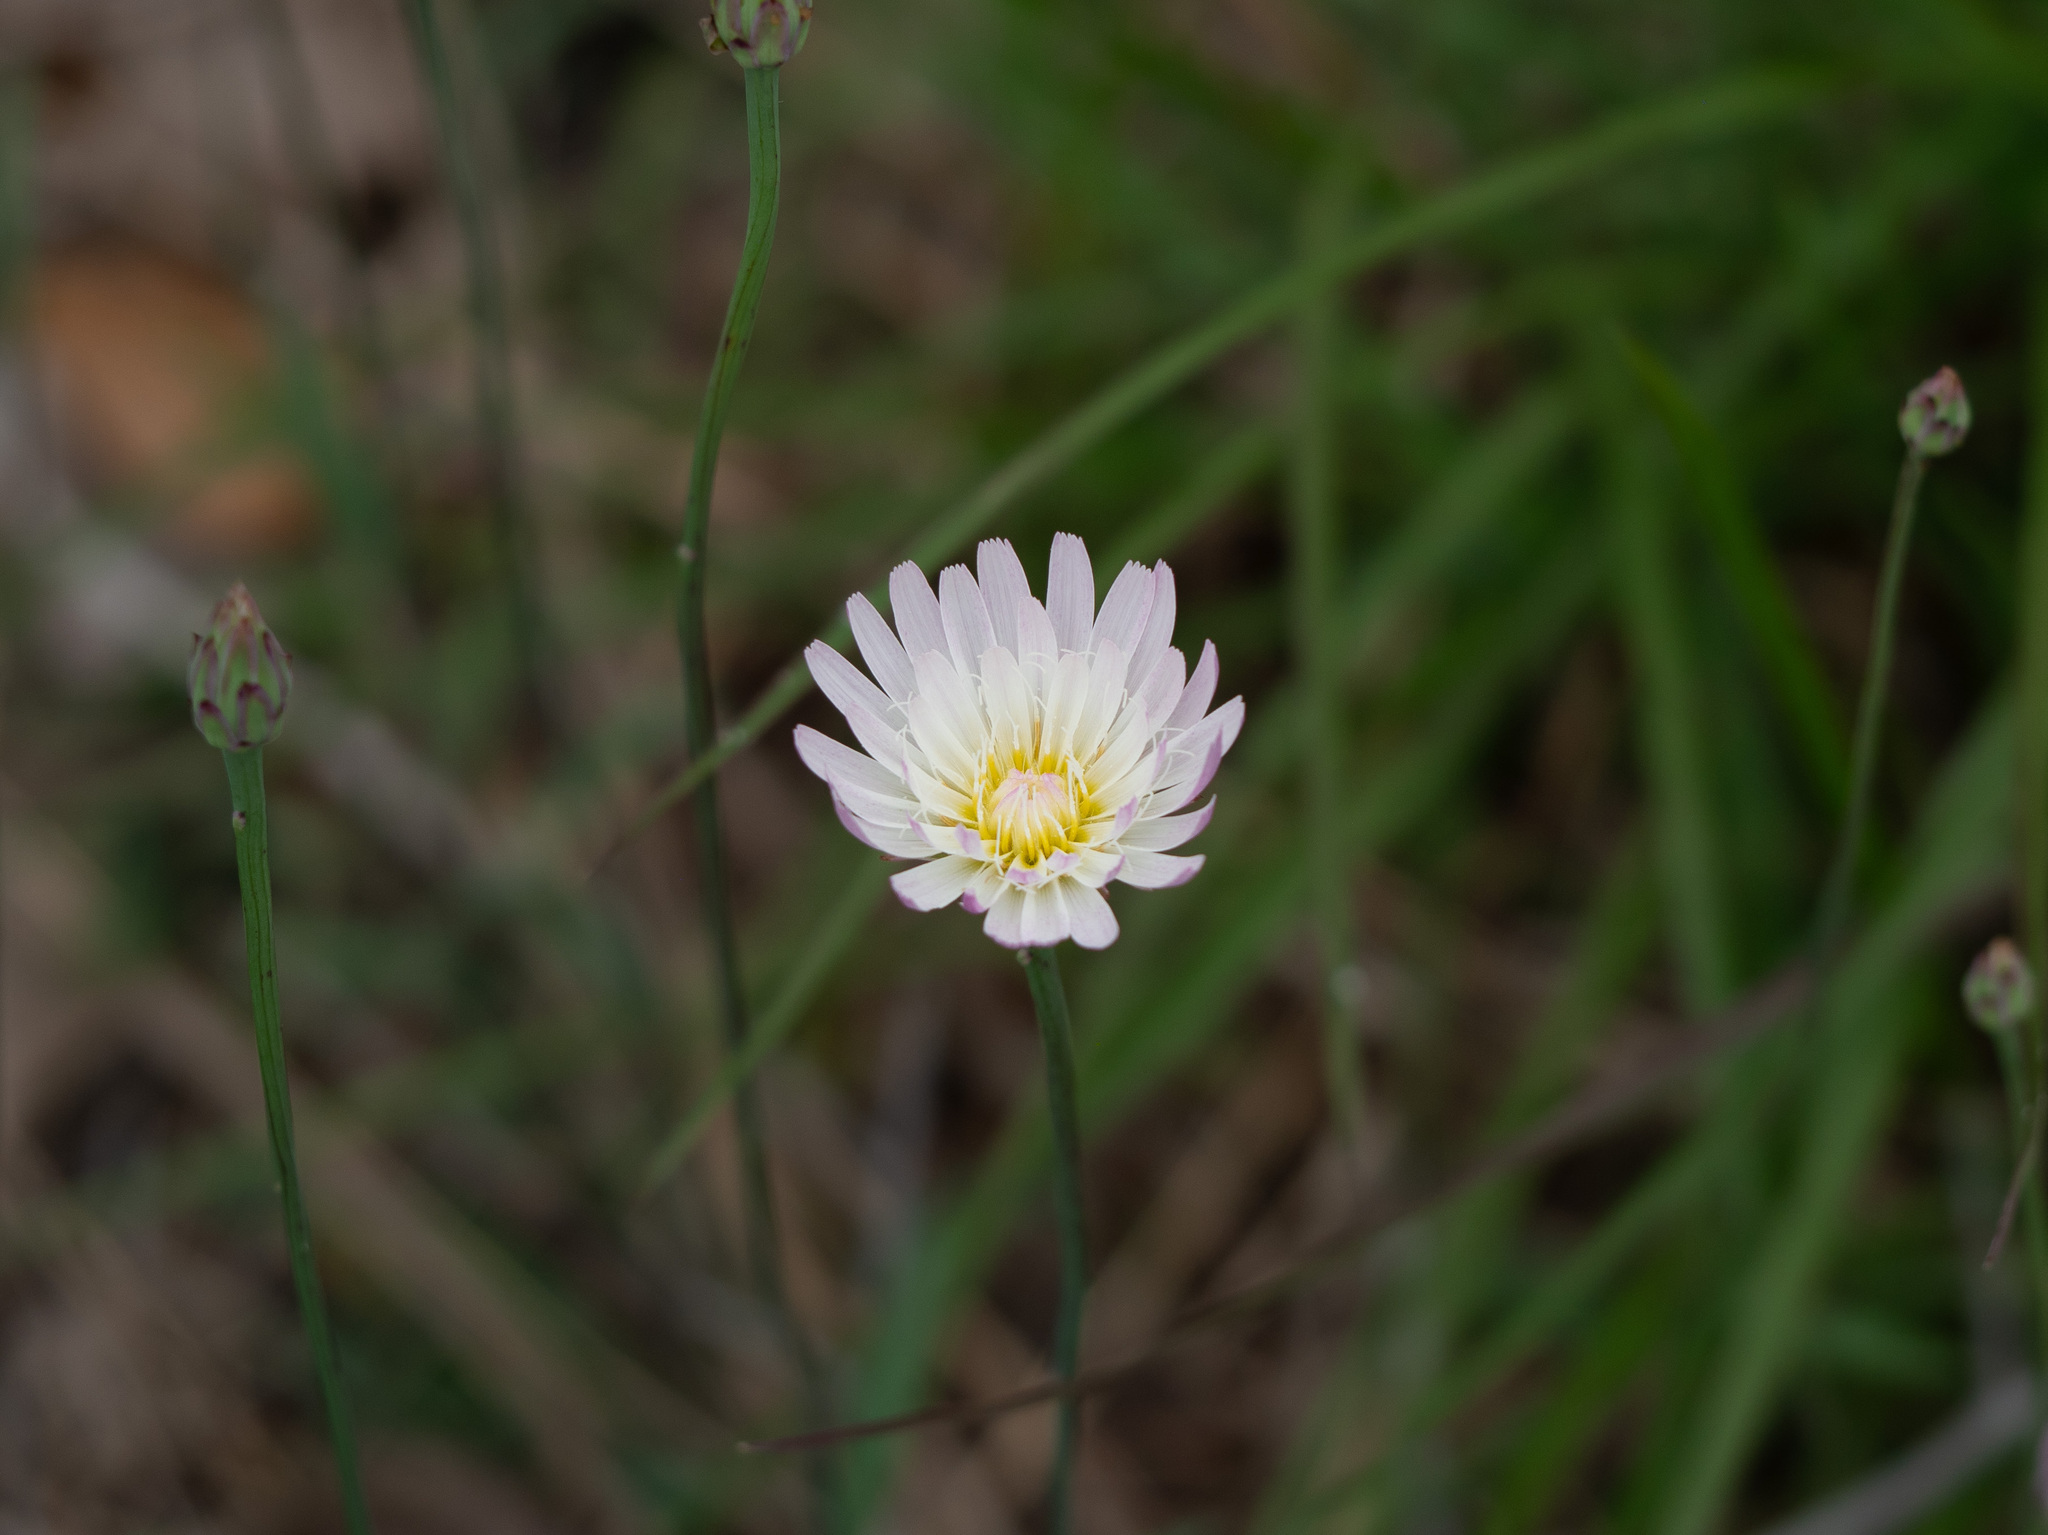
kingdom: Plantae
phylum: Tracheophyta
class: Magnoliopsida
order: Asterales
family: Asteraceae
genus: Pinaropappus
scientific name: Pinaropappus roseus
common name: Rock-lettuce
